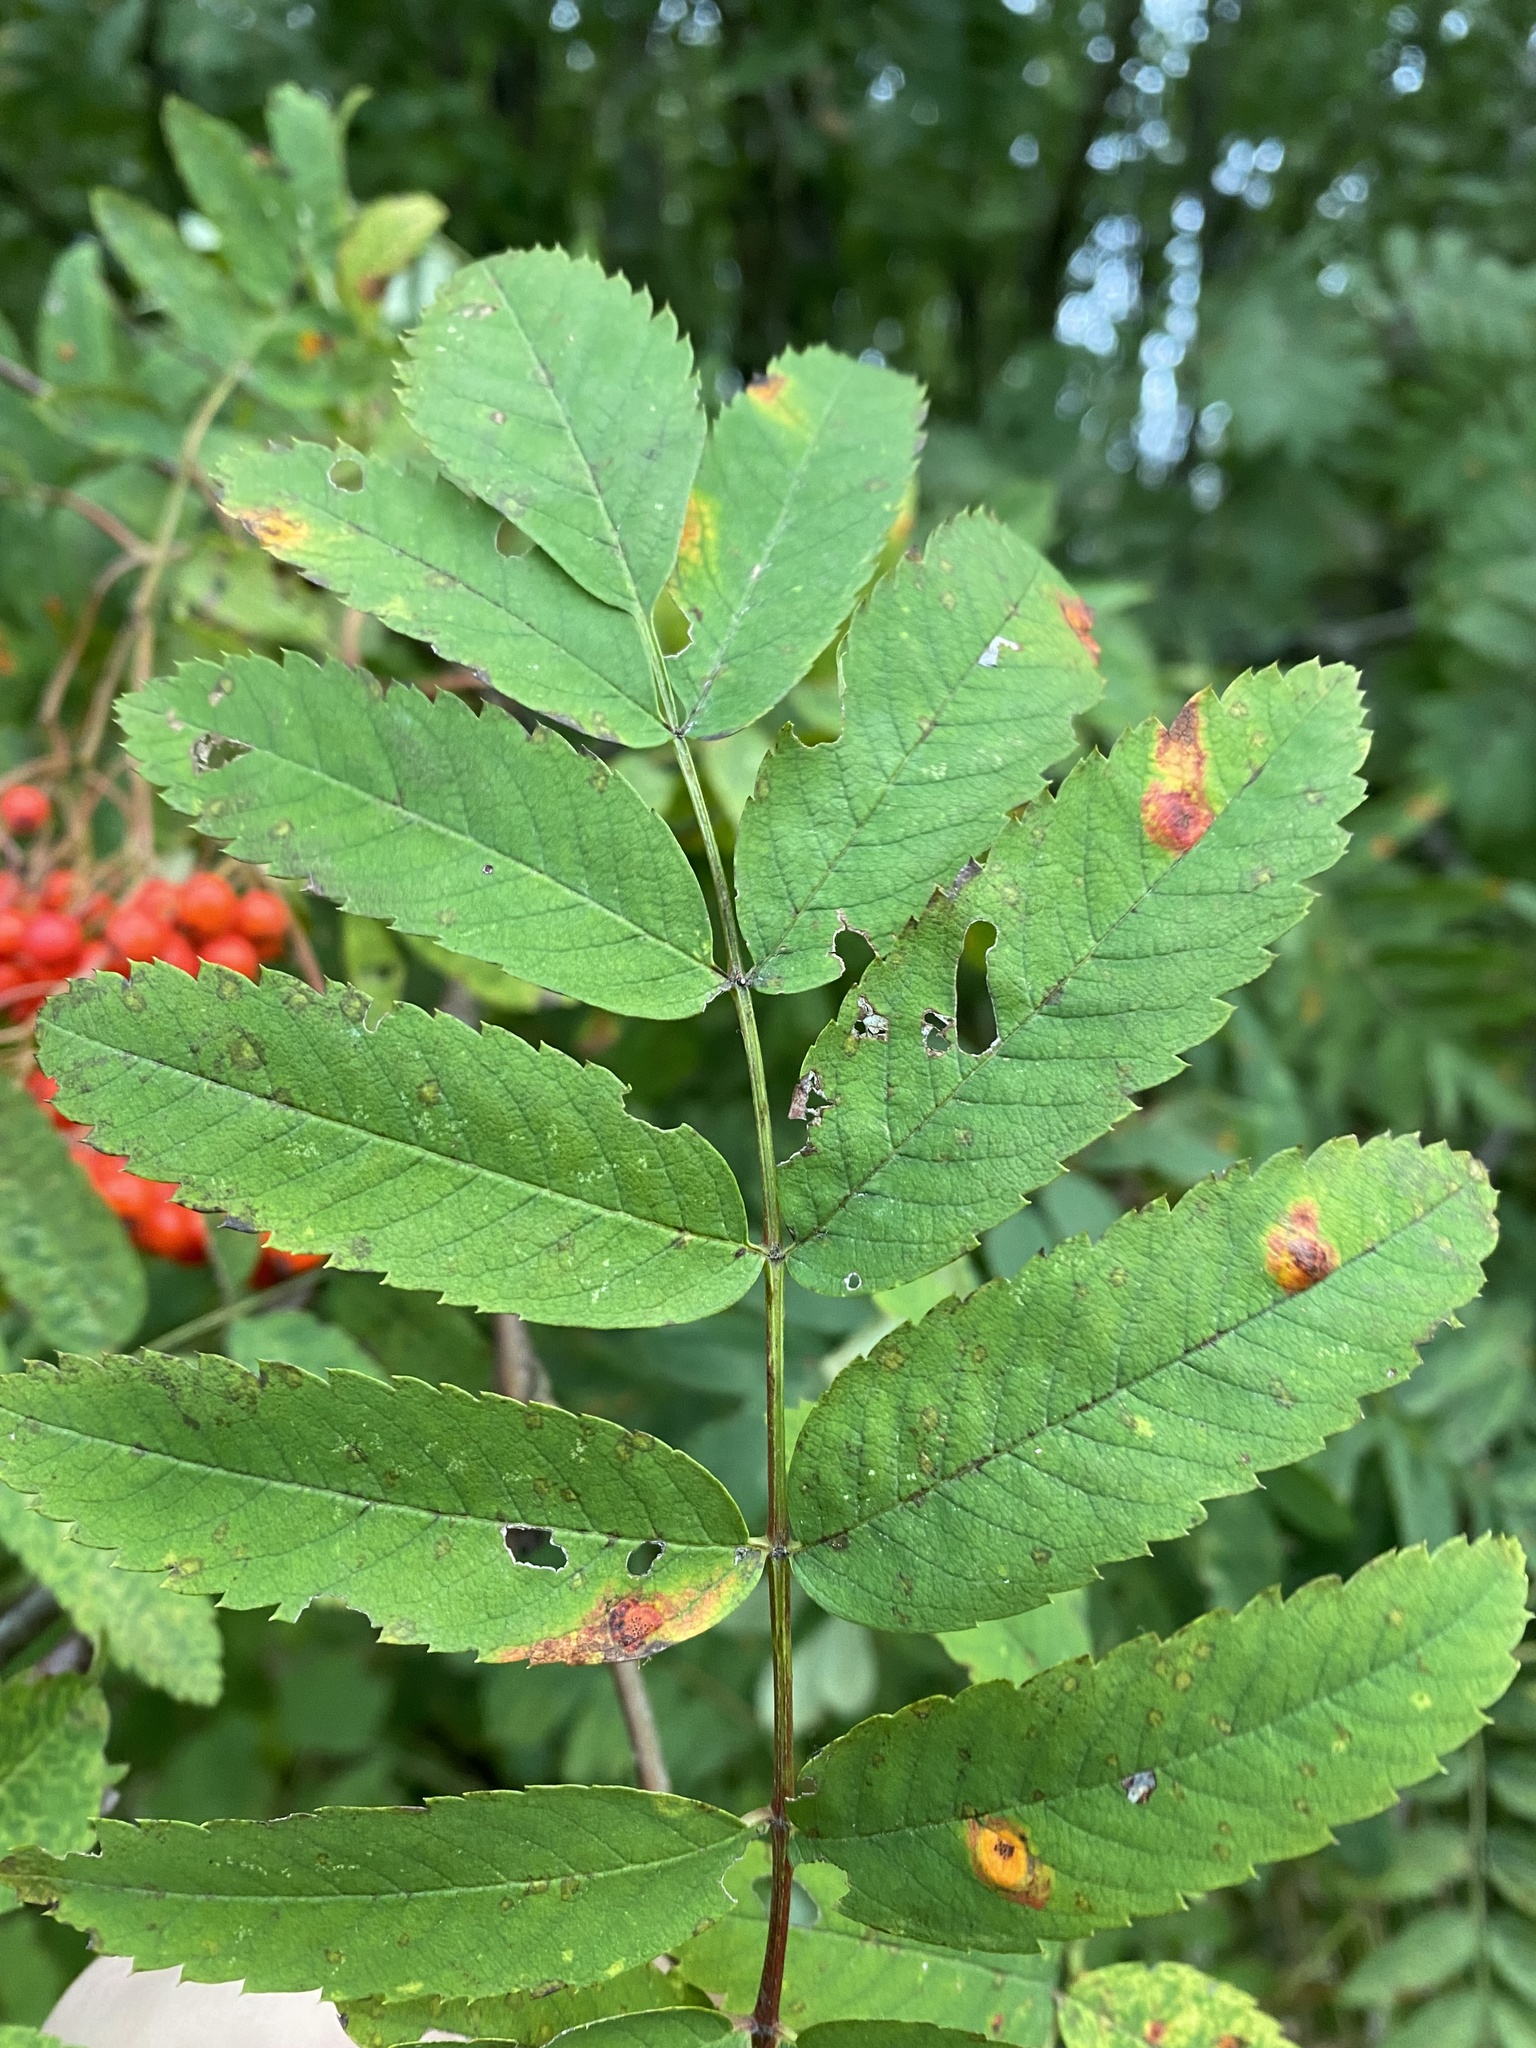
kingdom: Fungi
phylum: Basidiomycota
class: Pucciniomycetes
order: Pucciniales
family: Gymnosporangiaceae
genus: Gymnosporangium
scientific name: Gymnosporangium cornutum
